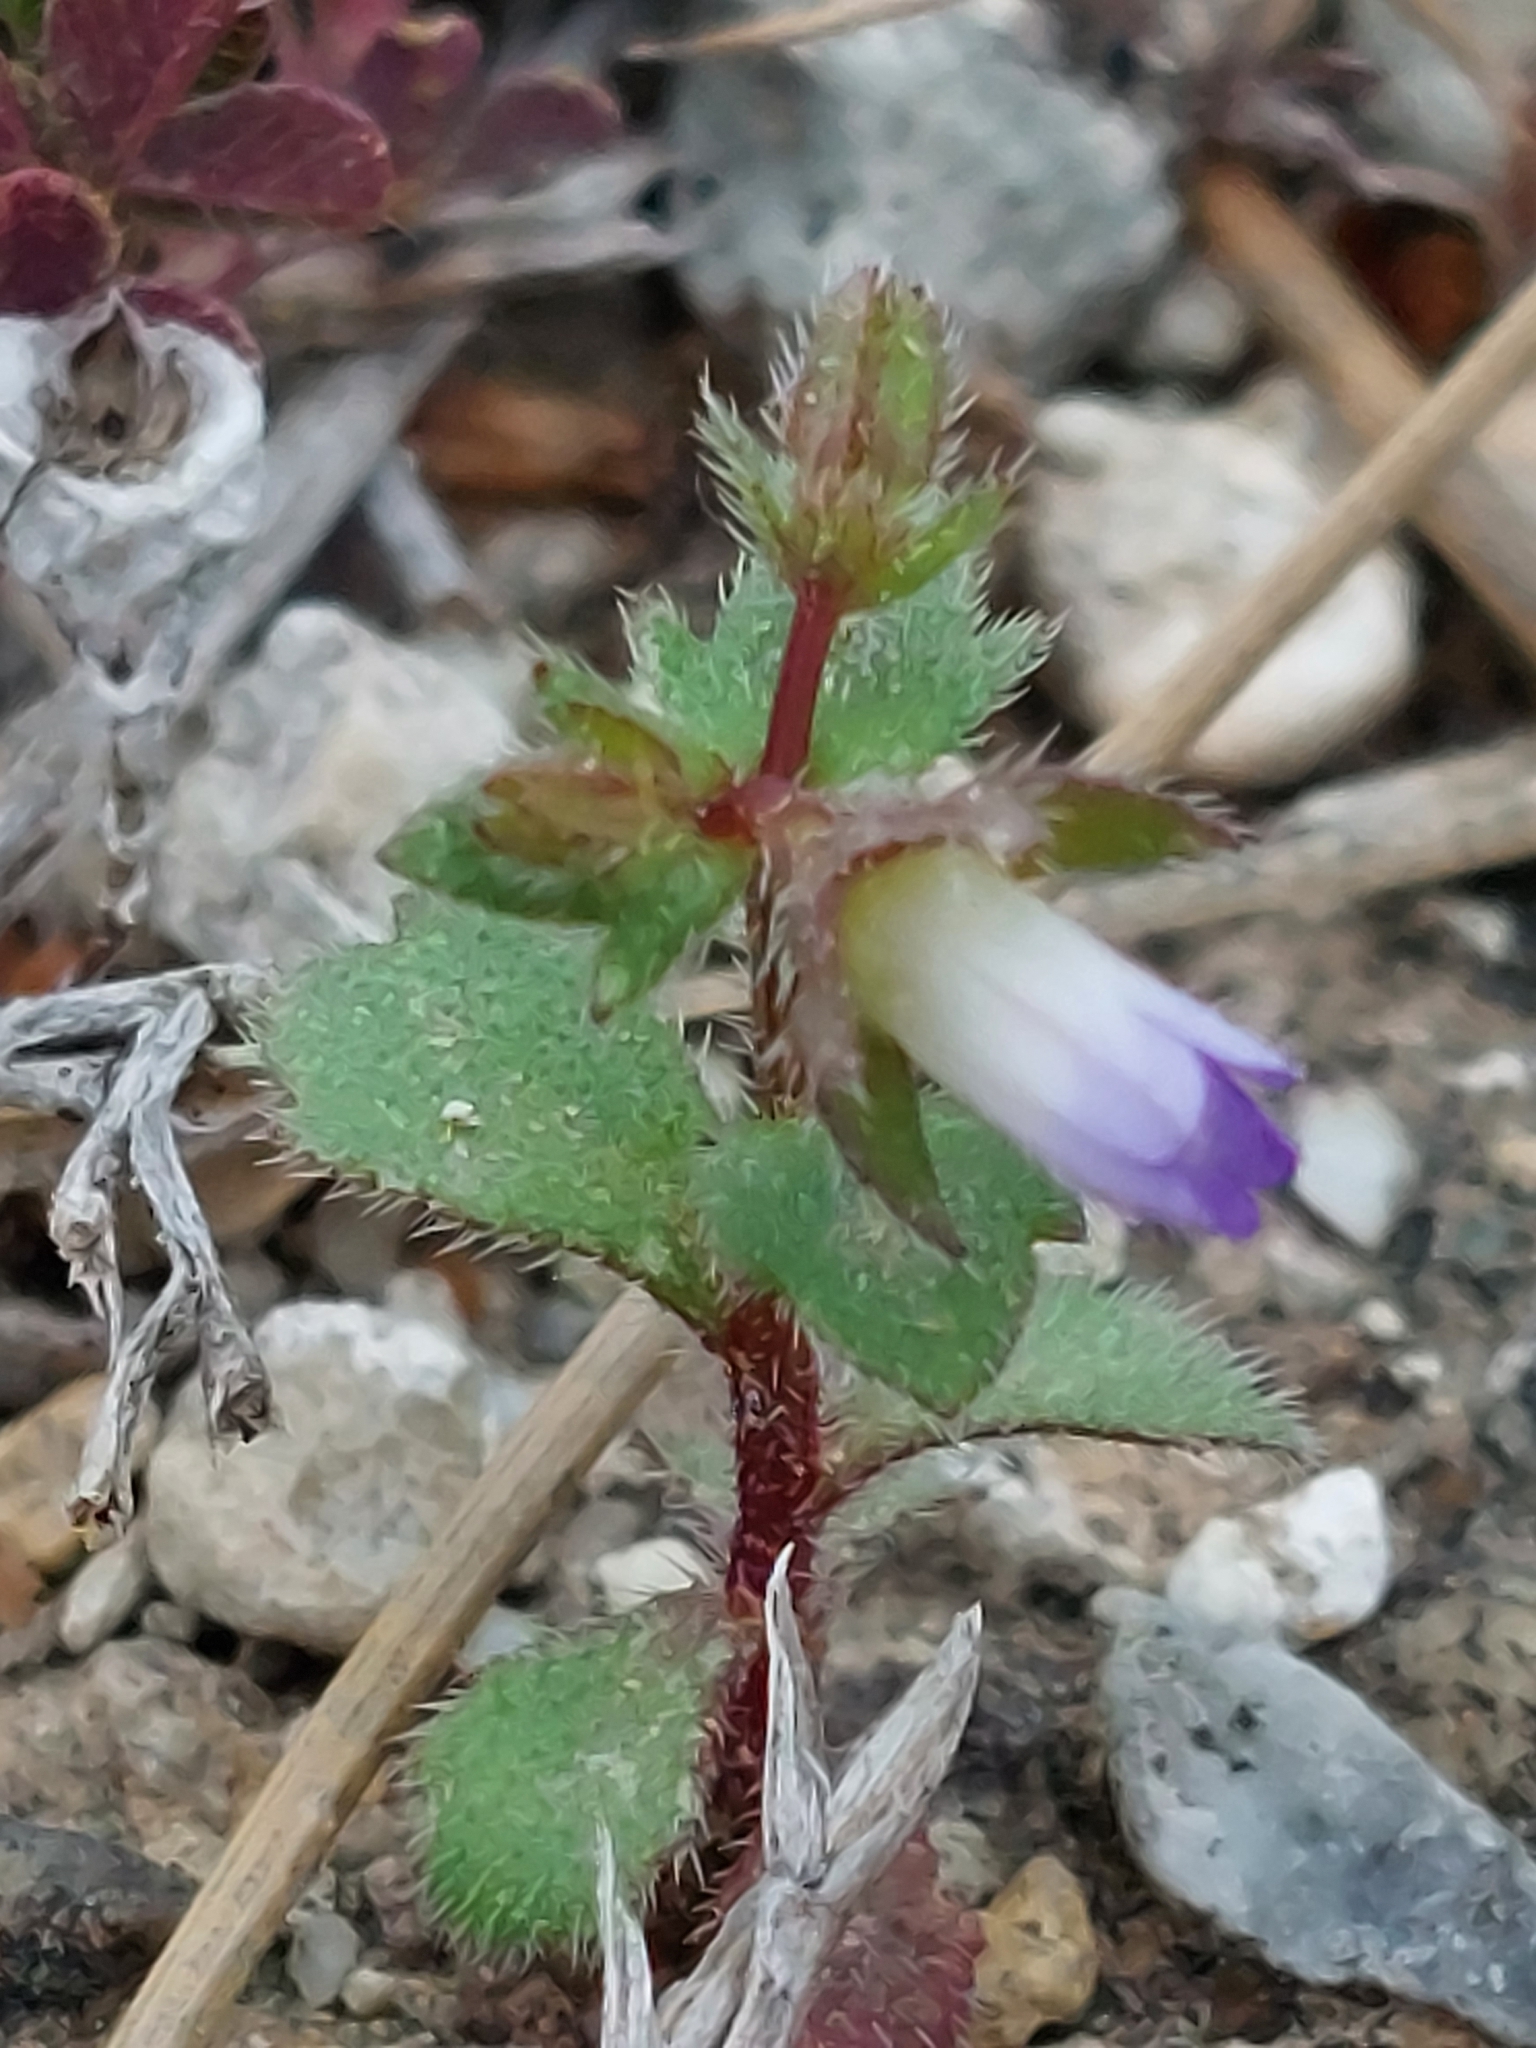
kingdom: Plantae
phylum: Tracheophyta
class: Magnoliopsida
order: Asterales
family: Campanulaceae
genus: Campanula
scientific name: Campanula erinus
